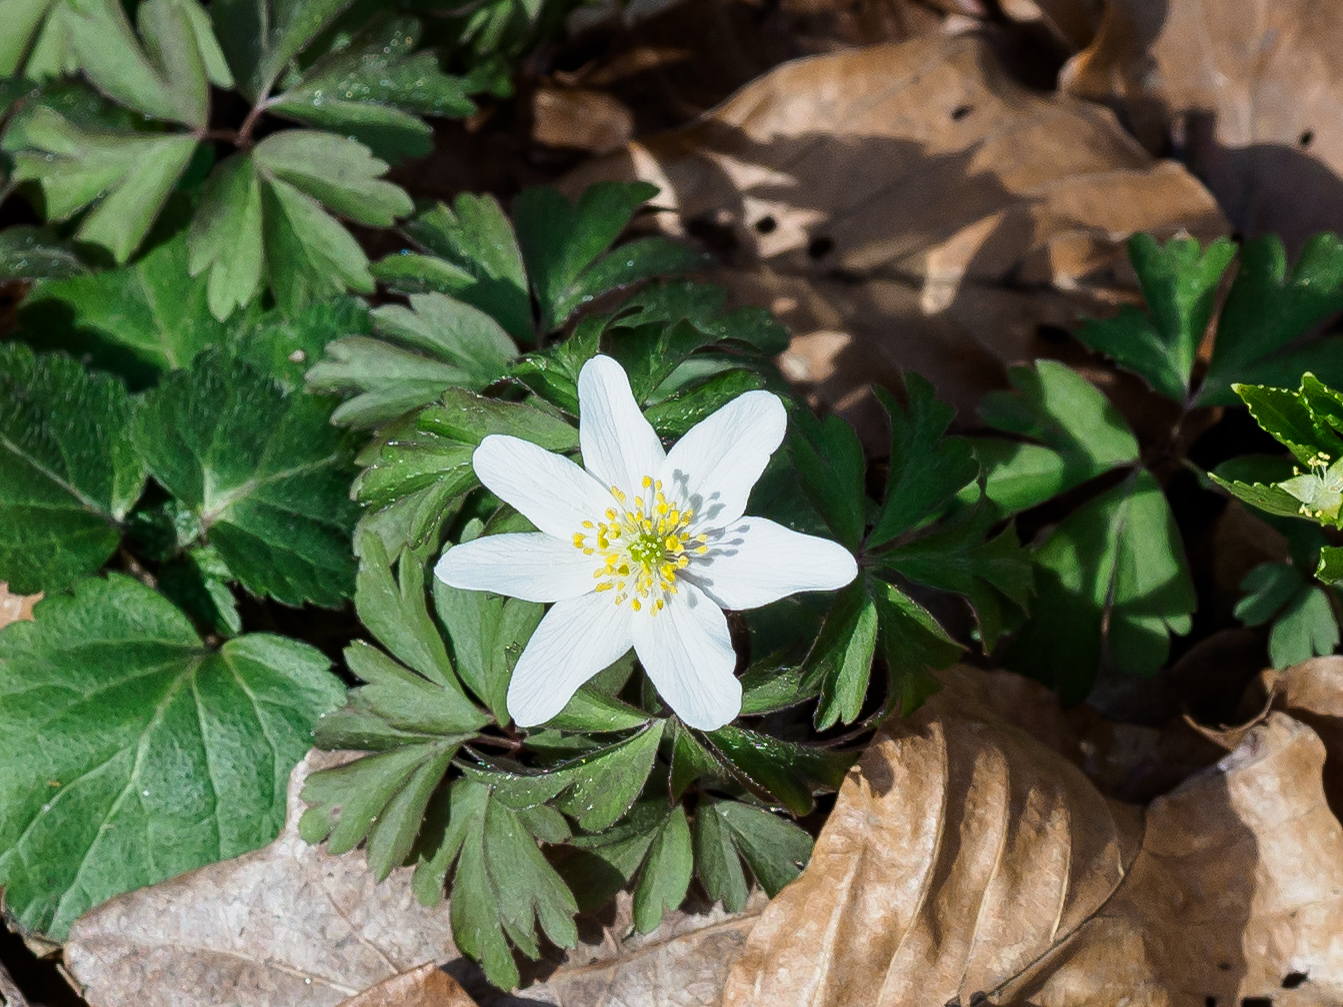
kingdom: Plantae
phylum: Tracheophyta
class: Magnoliopsida
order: Ranunculales
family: Ranunculaceae
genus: Anemone
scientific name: Anemone nemorosa
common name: Wood anemone
